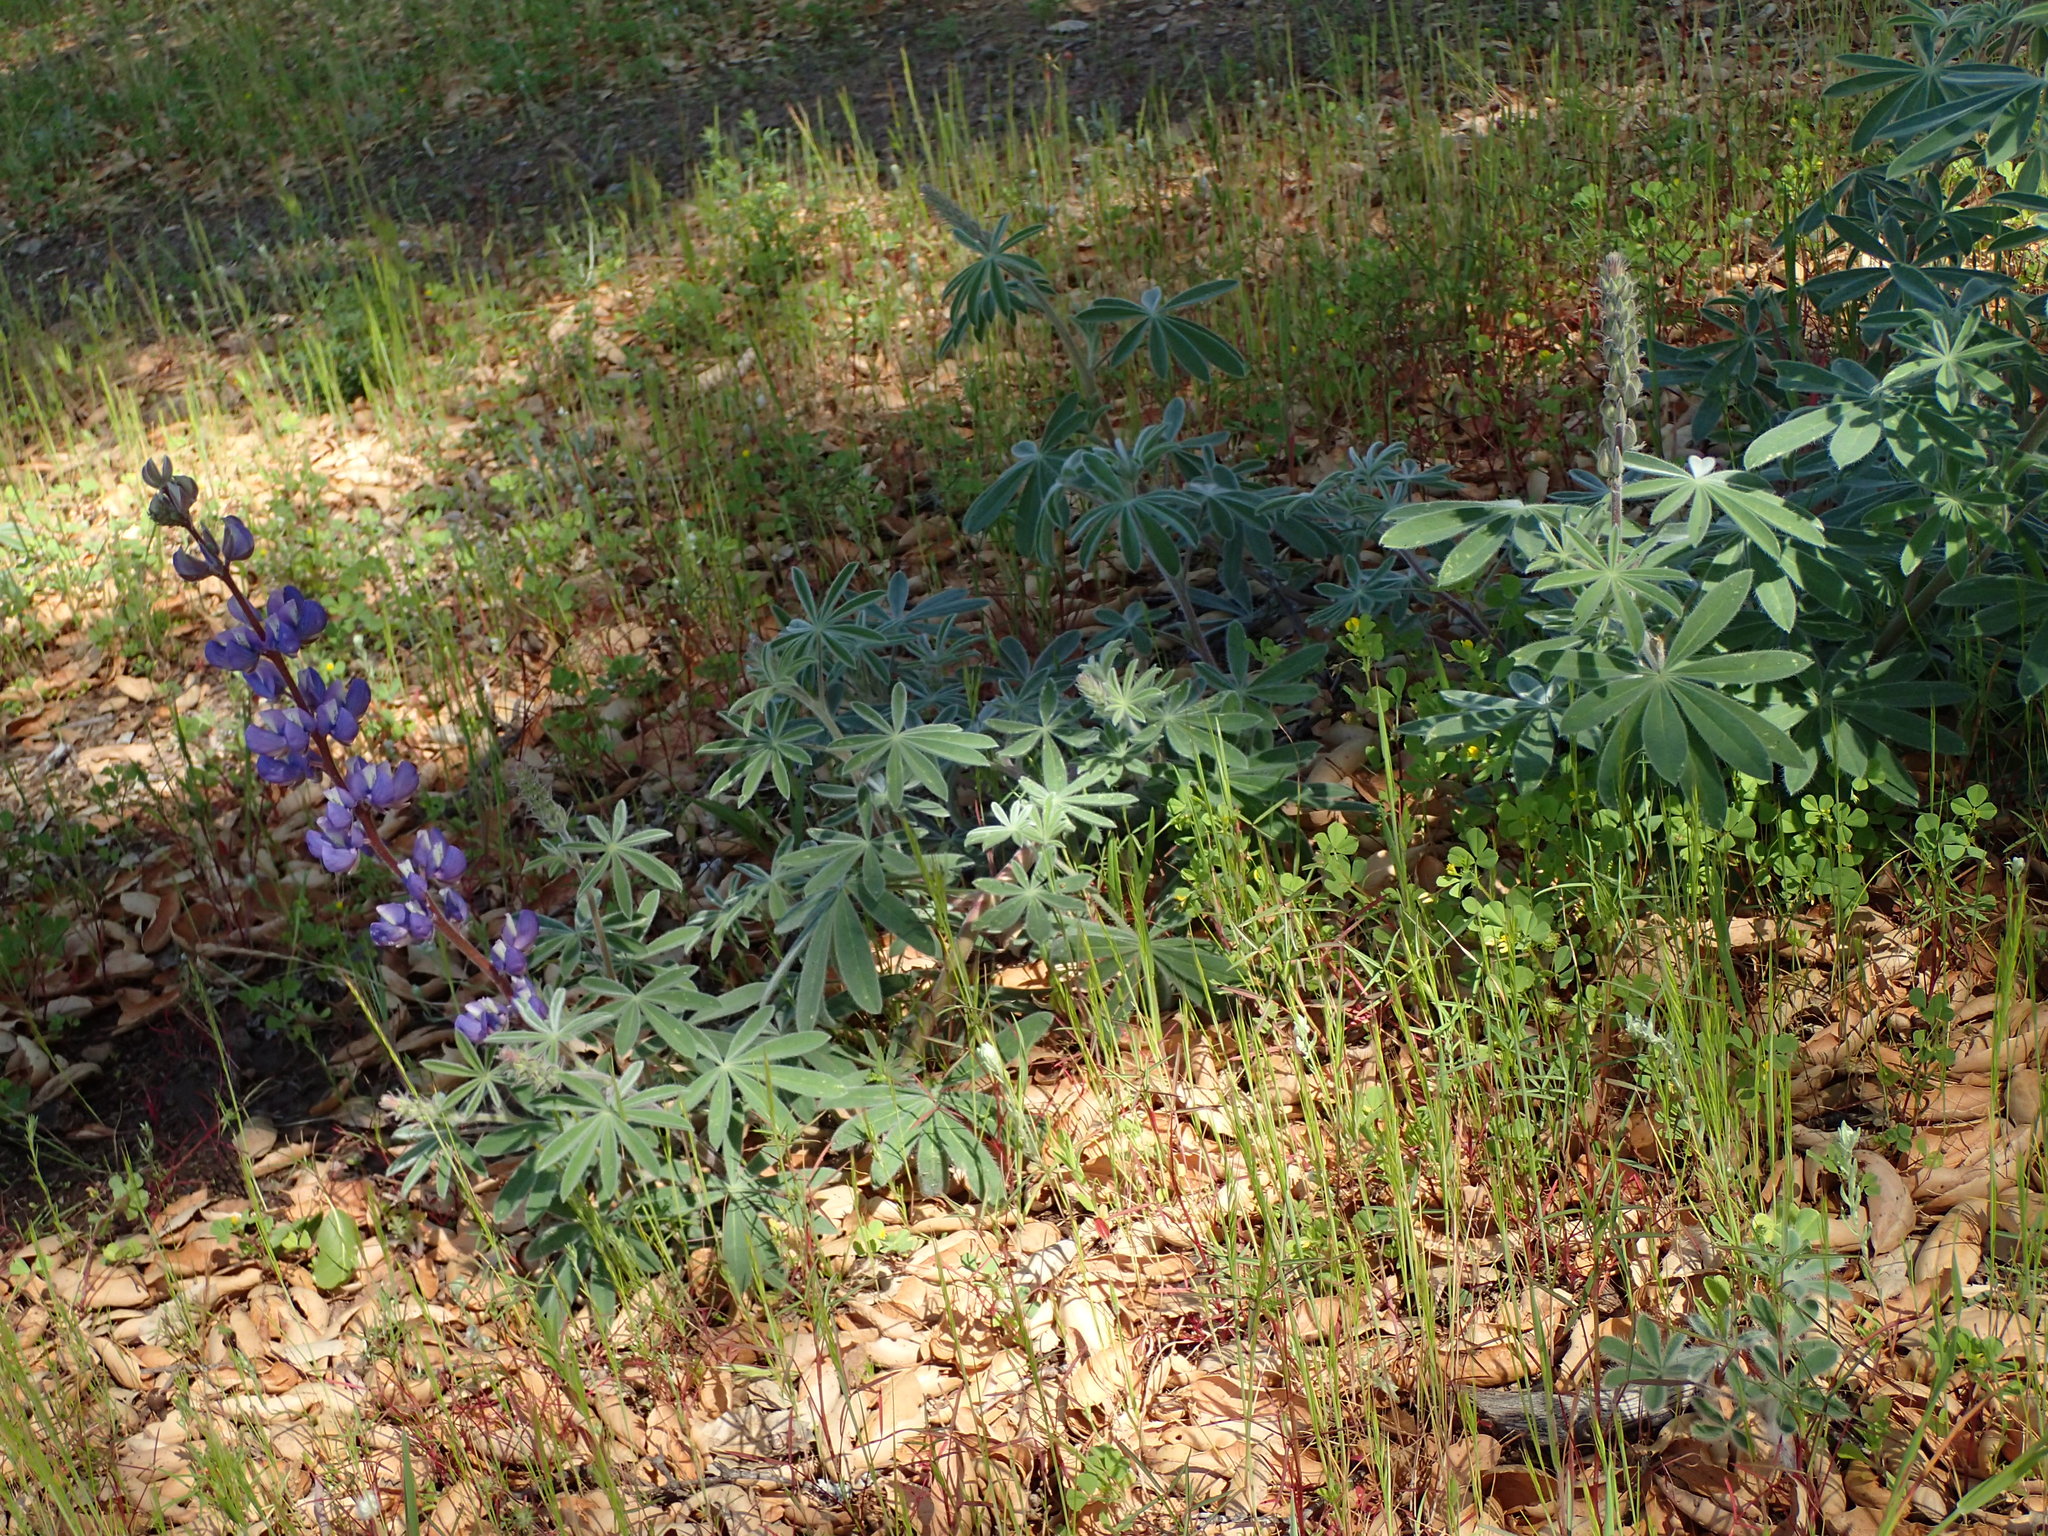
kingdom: Plantae
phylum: Tracheophyta
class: Magnoliopsida
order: Fabales
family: Fabaceae
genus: Lupinus
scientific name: Lupinus formosus
